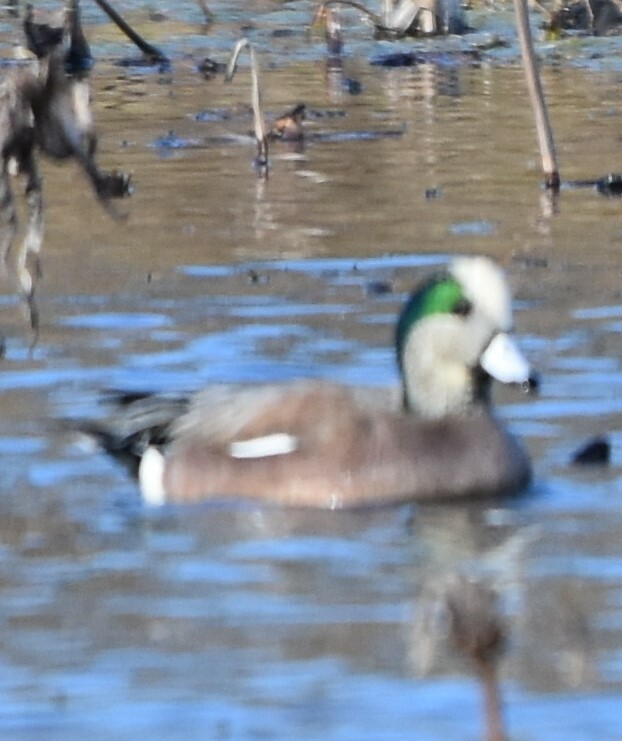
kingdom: Animalia
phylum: Chordata
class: Aves
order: Anseriformes
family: Anatidae
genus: Mareca
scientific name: Mareca americana
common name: American wigeon
